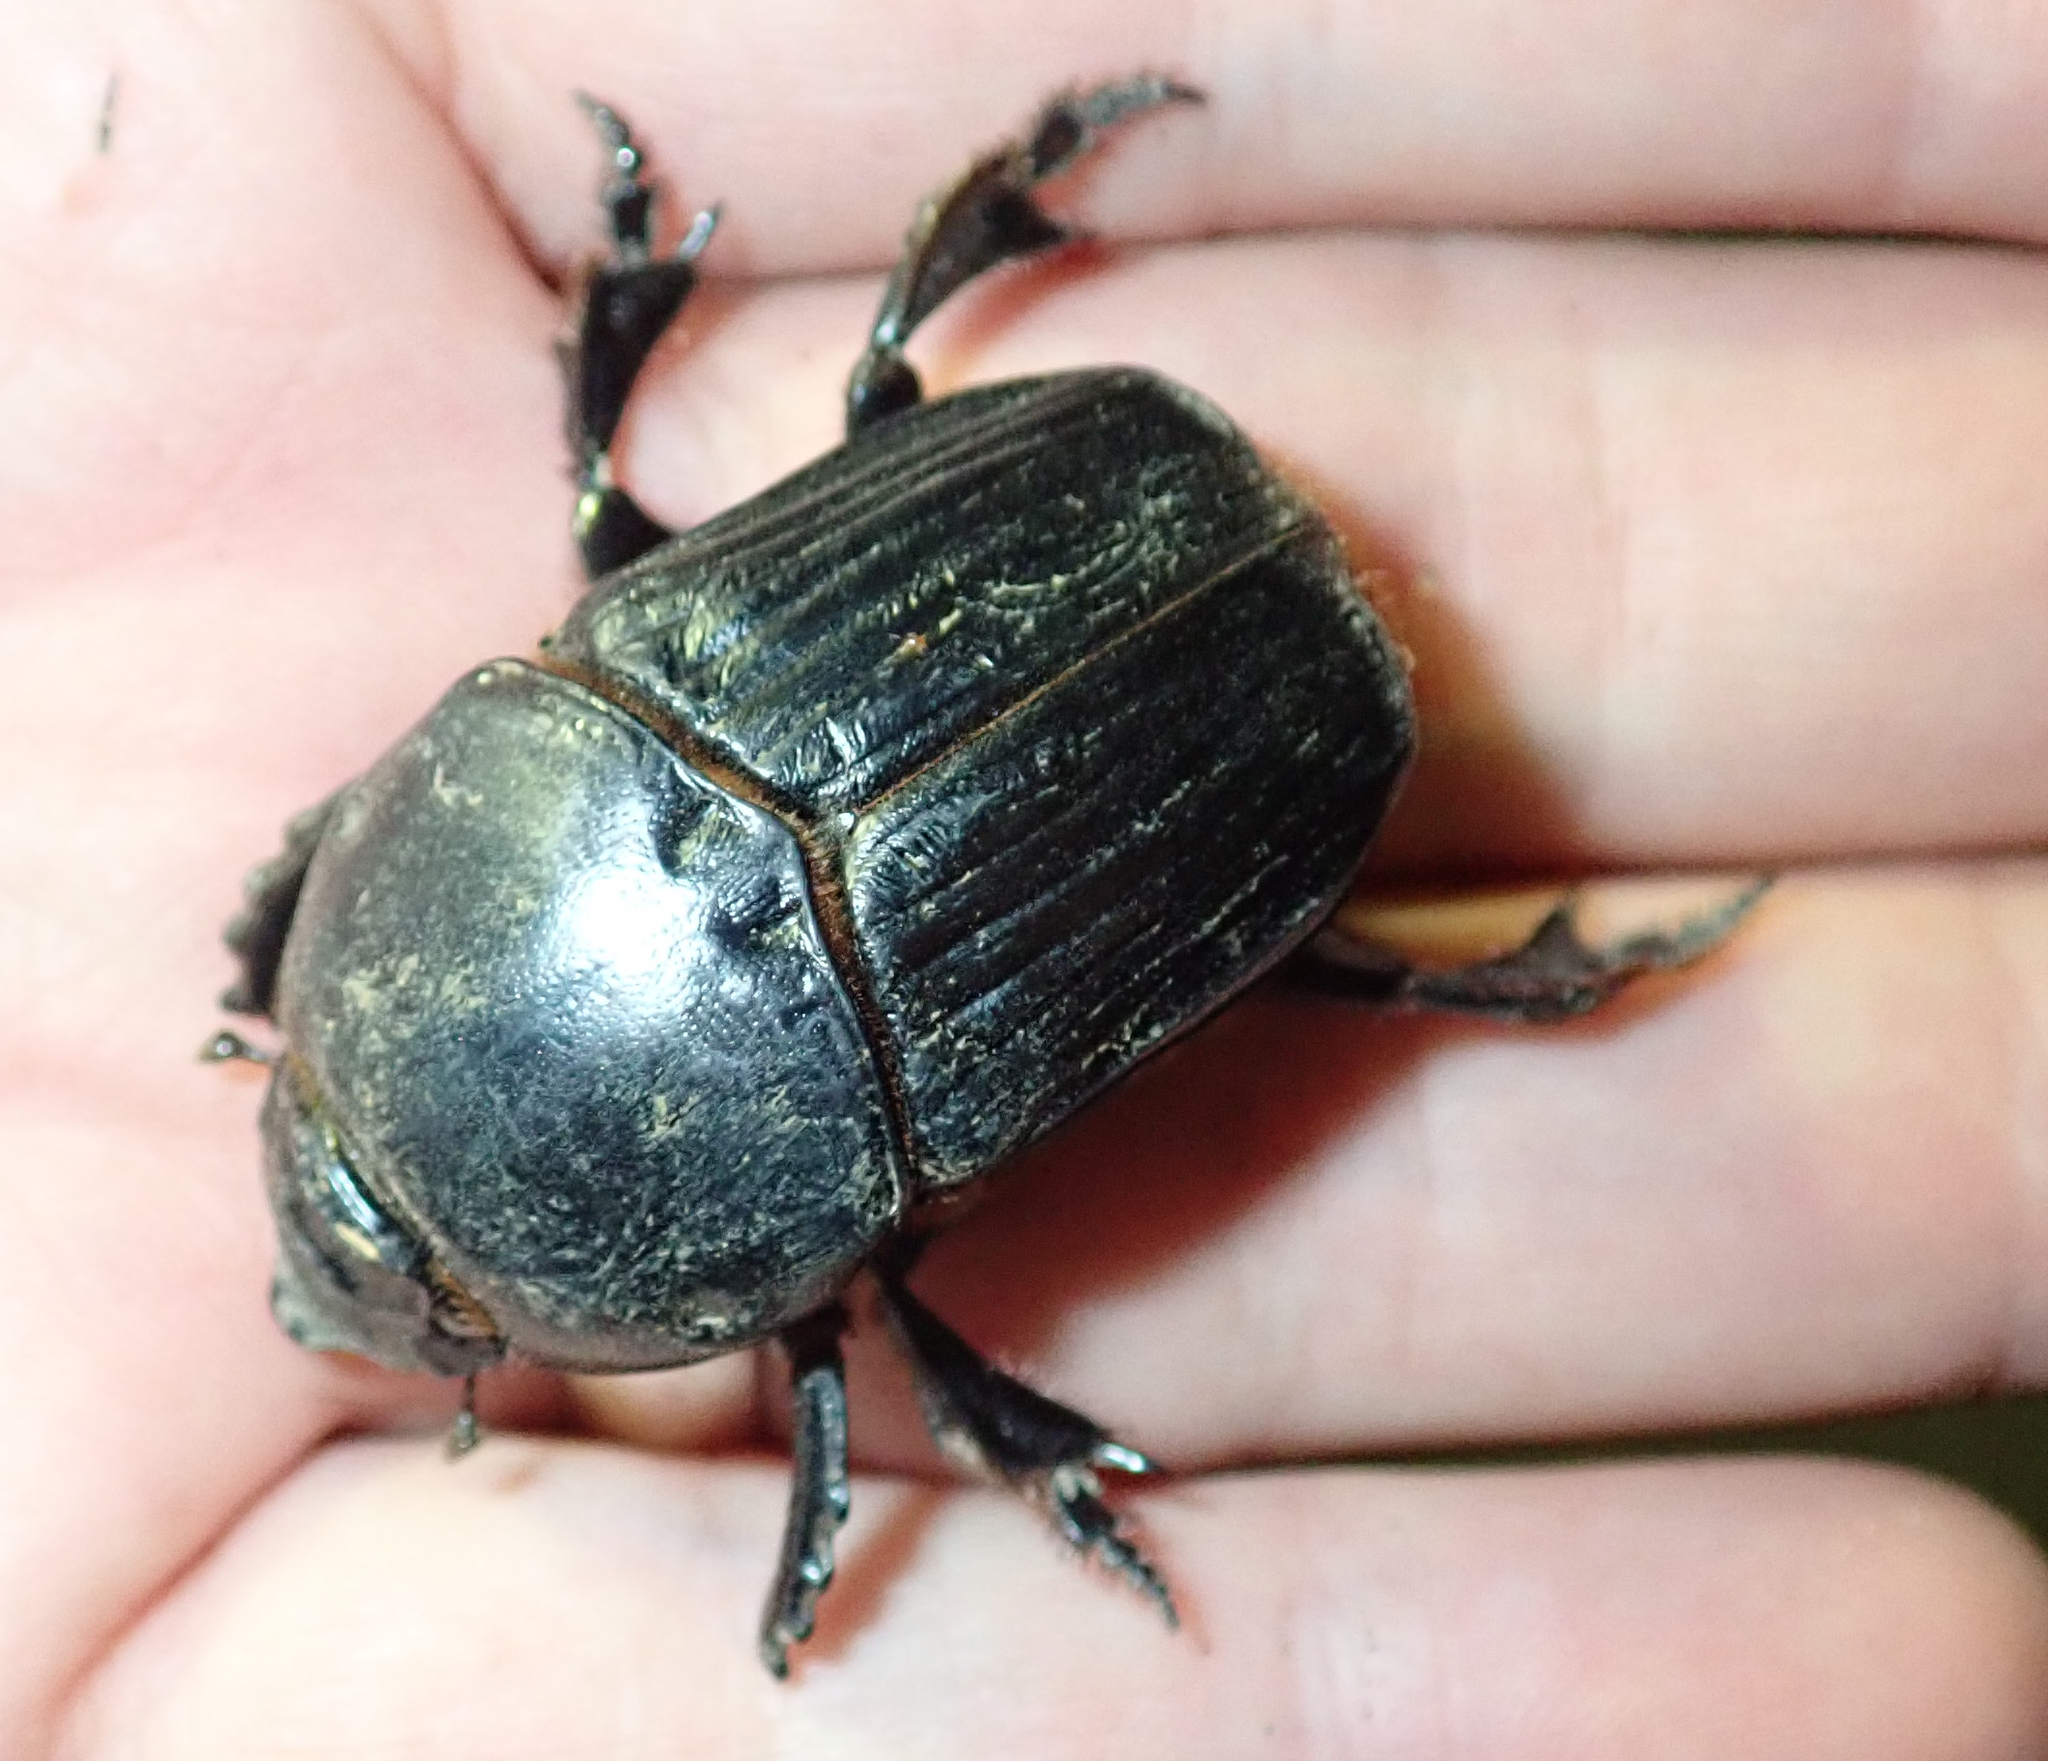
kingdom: Animalia
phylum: Arthropoda
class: Insecta
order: Coleoptera
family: Scarabaeidae
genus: Megalonitis
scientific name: Megalonitis bohemanni
